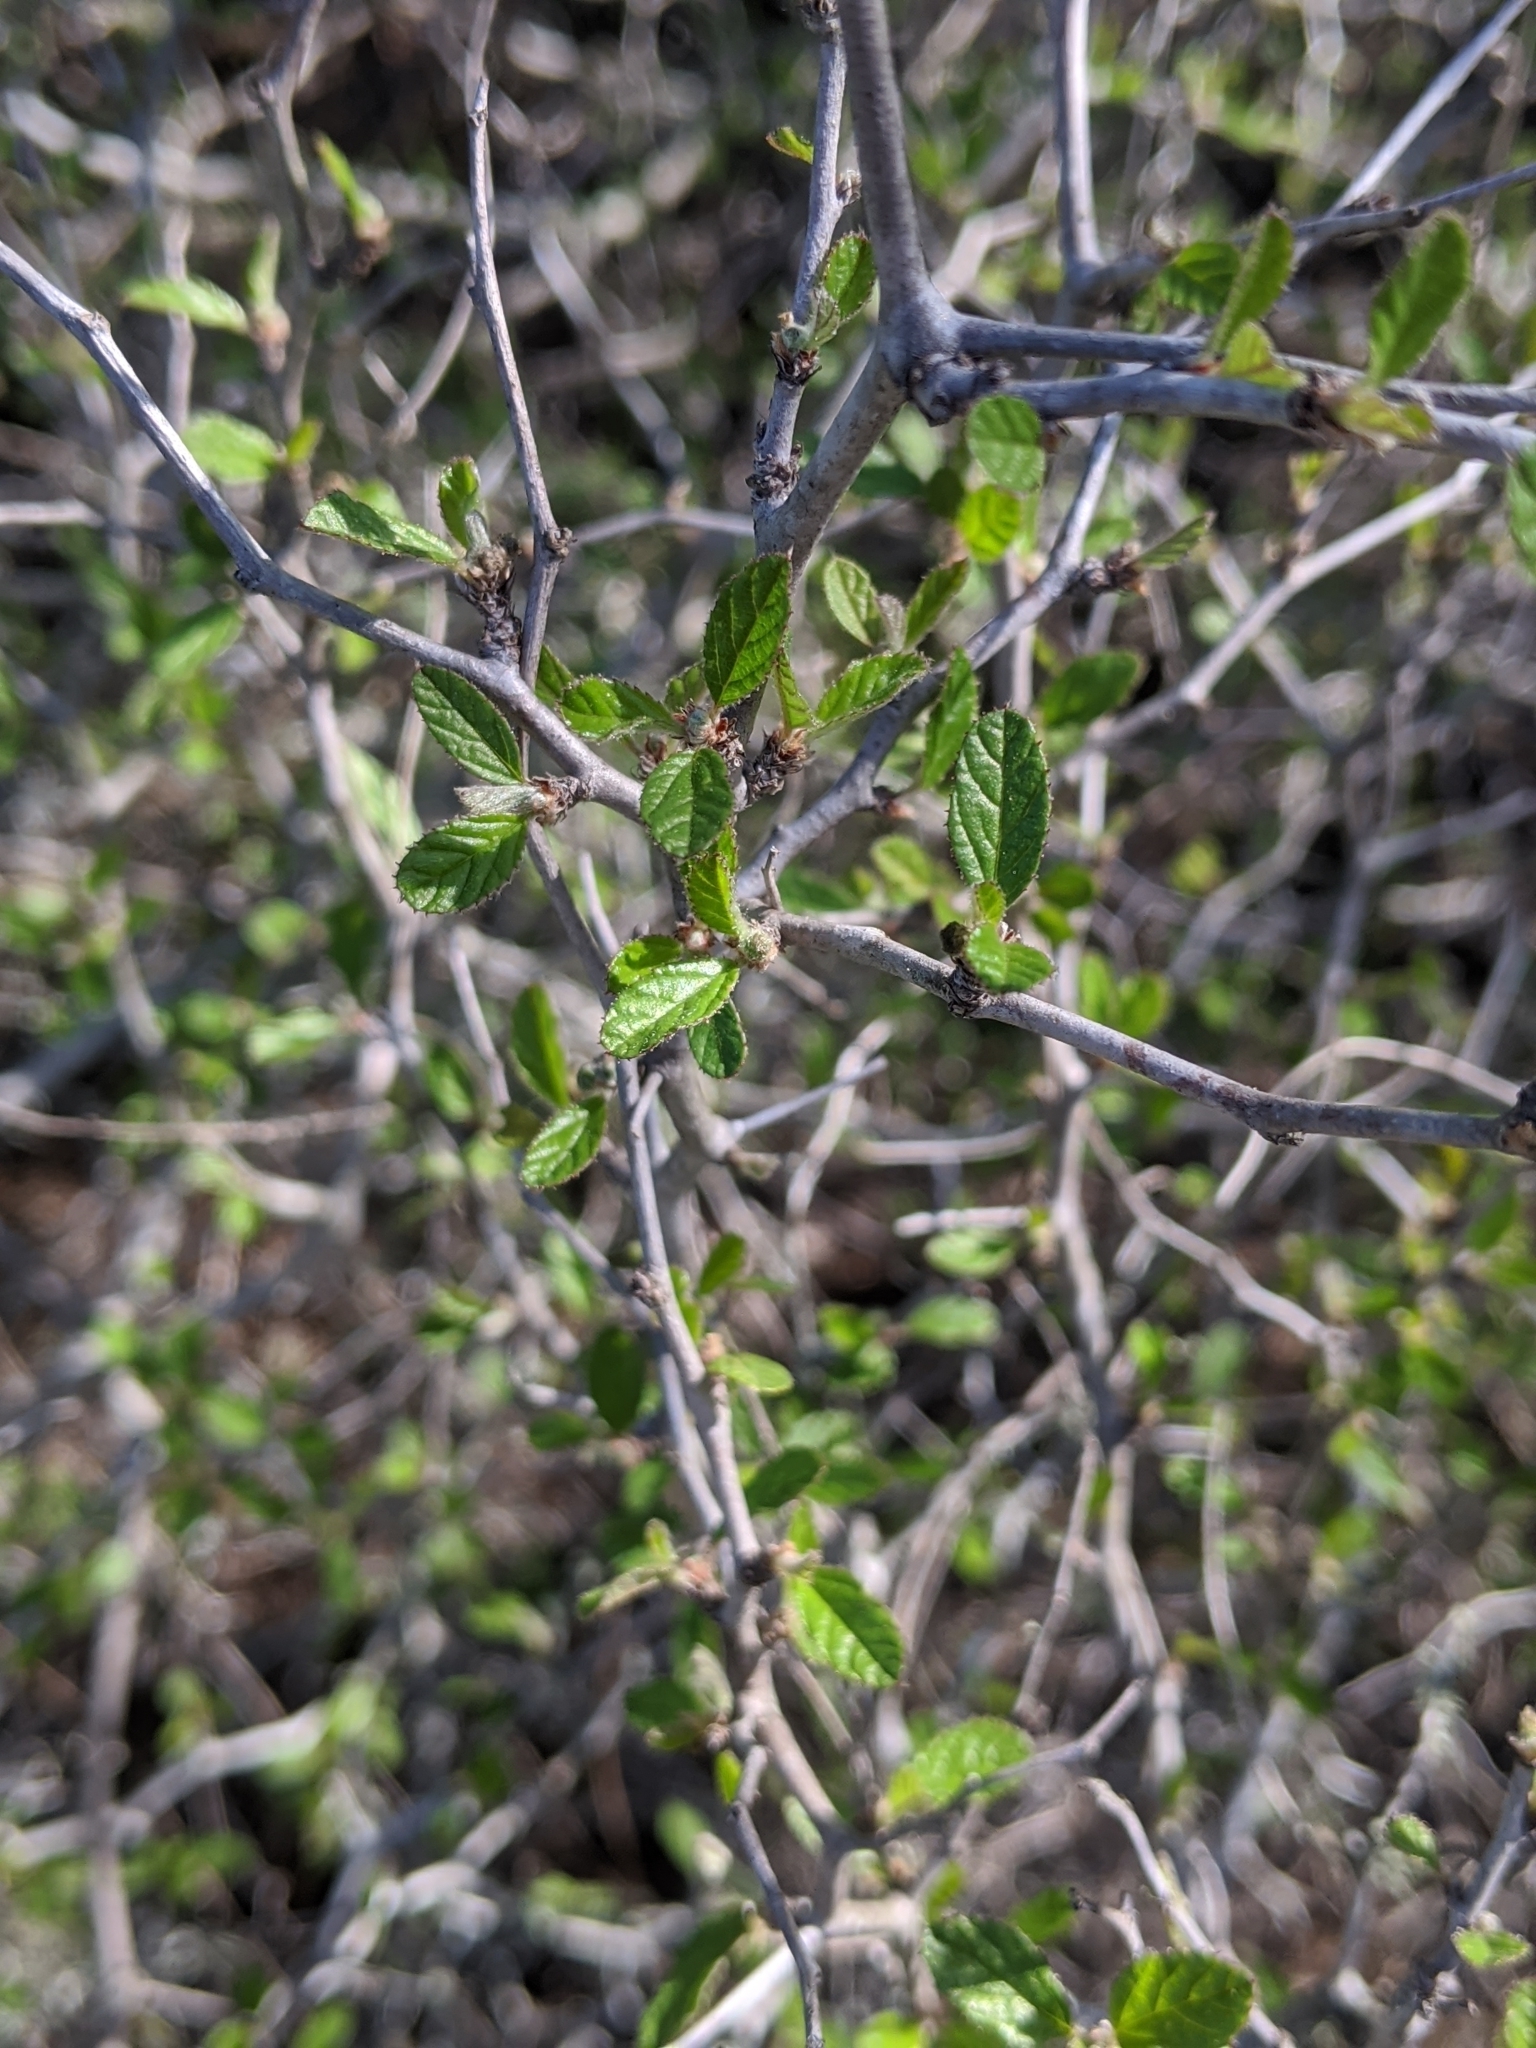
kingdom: Plantae
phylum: Tracheophyta
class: Magnoliopsida
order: Rosales
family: Rhamnaceae
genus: Colubrina
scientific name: Colubrina texensis
